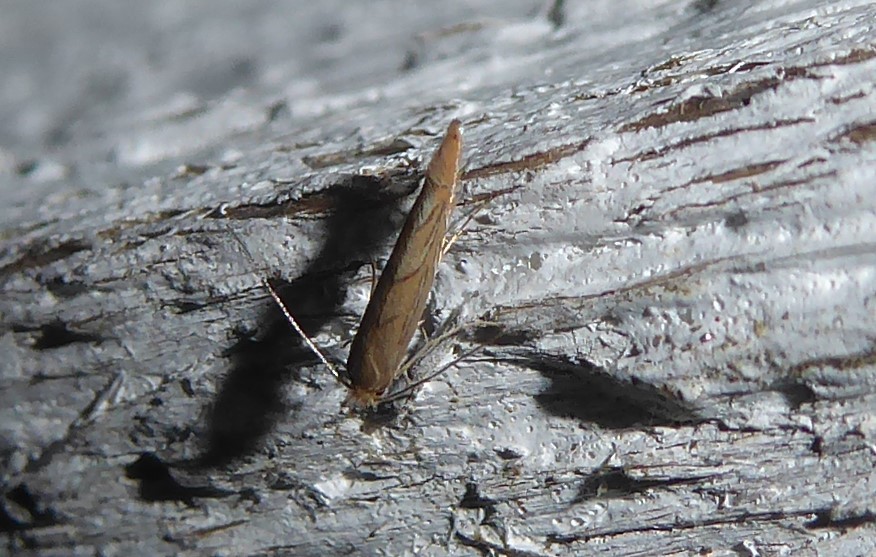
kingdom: Animalia
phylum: Arthropoda
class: Insecta
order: Lepidoptera
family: Gracillariidae
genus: Phyllonorycter
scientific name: Phyllonorycter messaniella
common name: Garden midget
